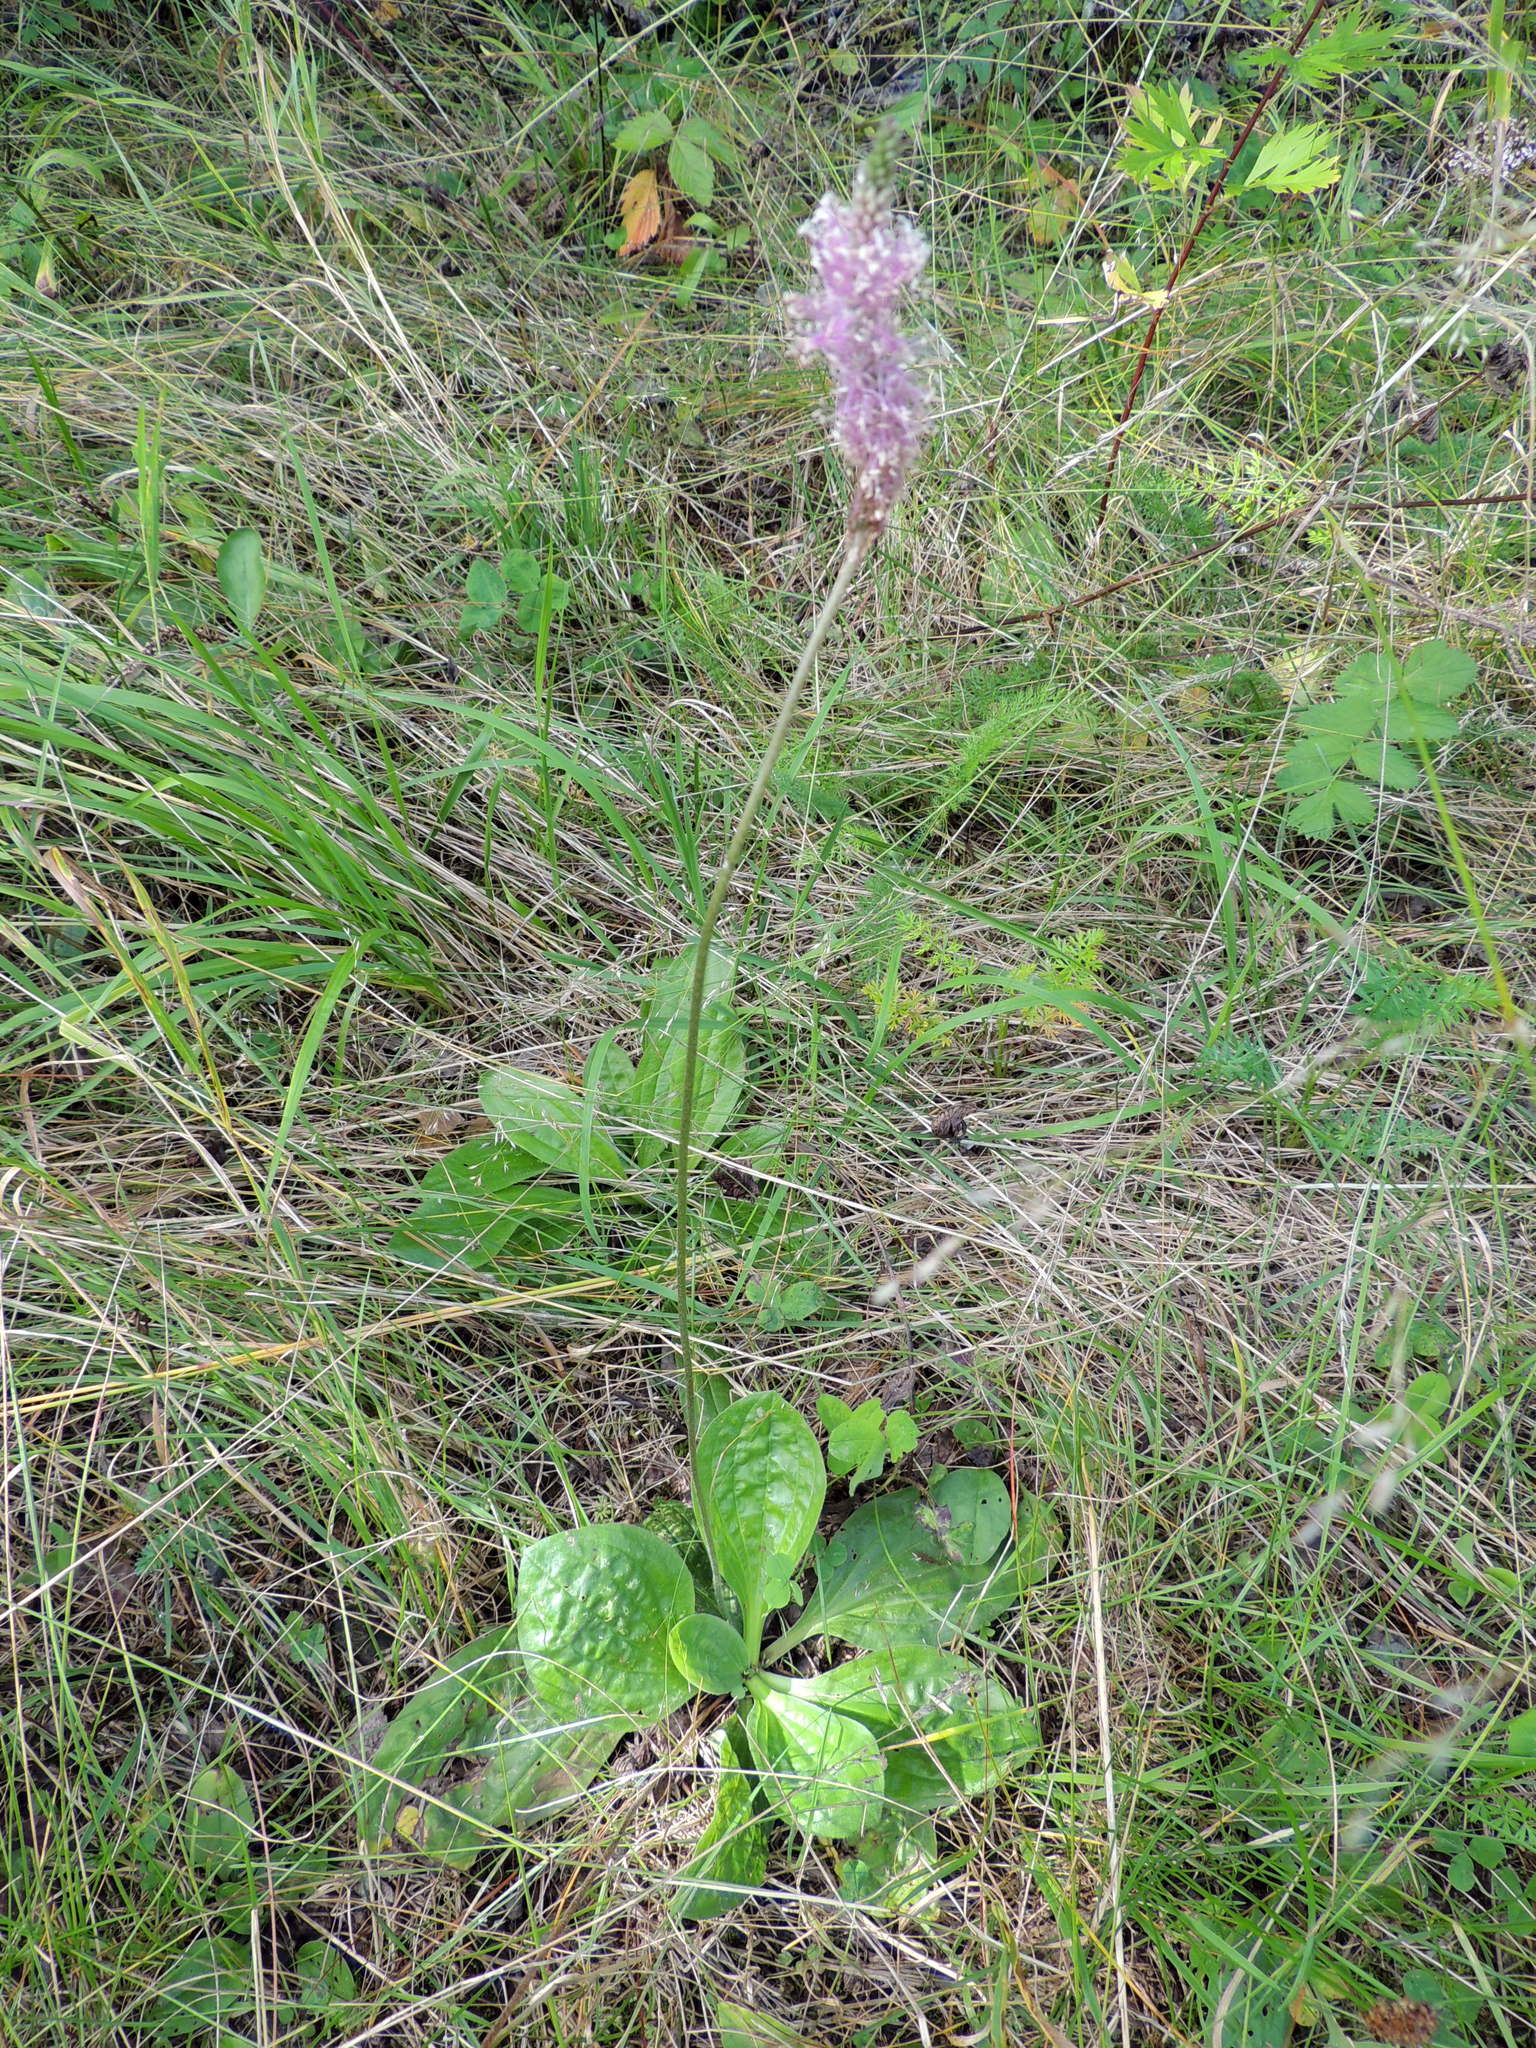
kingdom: Plantae
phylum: Tracheophyta
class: Magnoliopsida
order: Lamiales
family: Plantaginaceae
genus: Plantago
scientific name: Plantago media
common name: Hoary plantain
